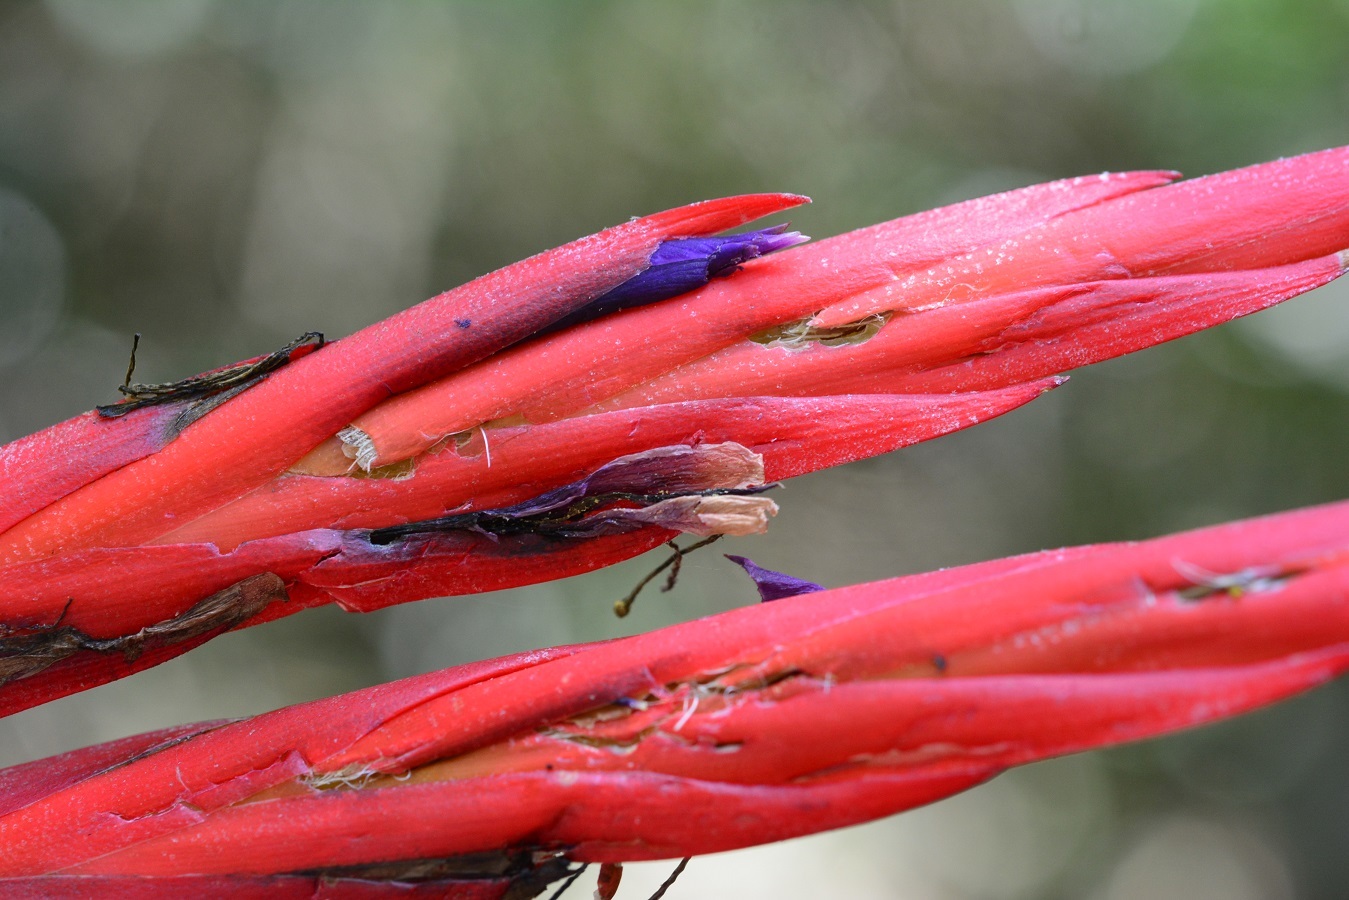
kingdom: Plantae
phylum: Tracheophyta
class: Liliopsida
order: Poales
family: Bromeliaceae
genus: Tillandsia
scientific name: Tillandsia flabellata
